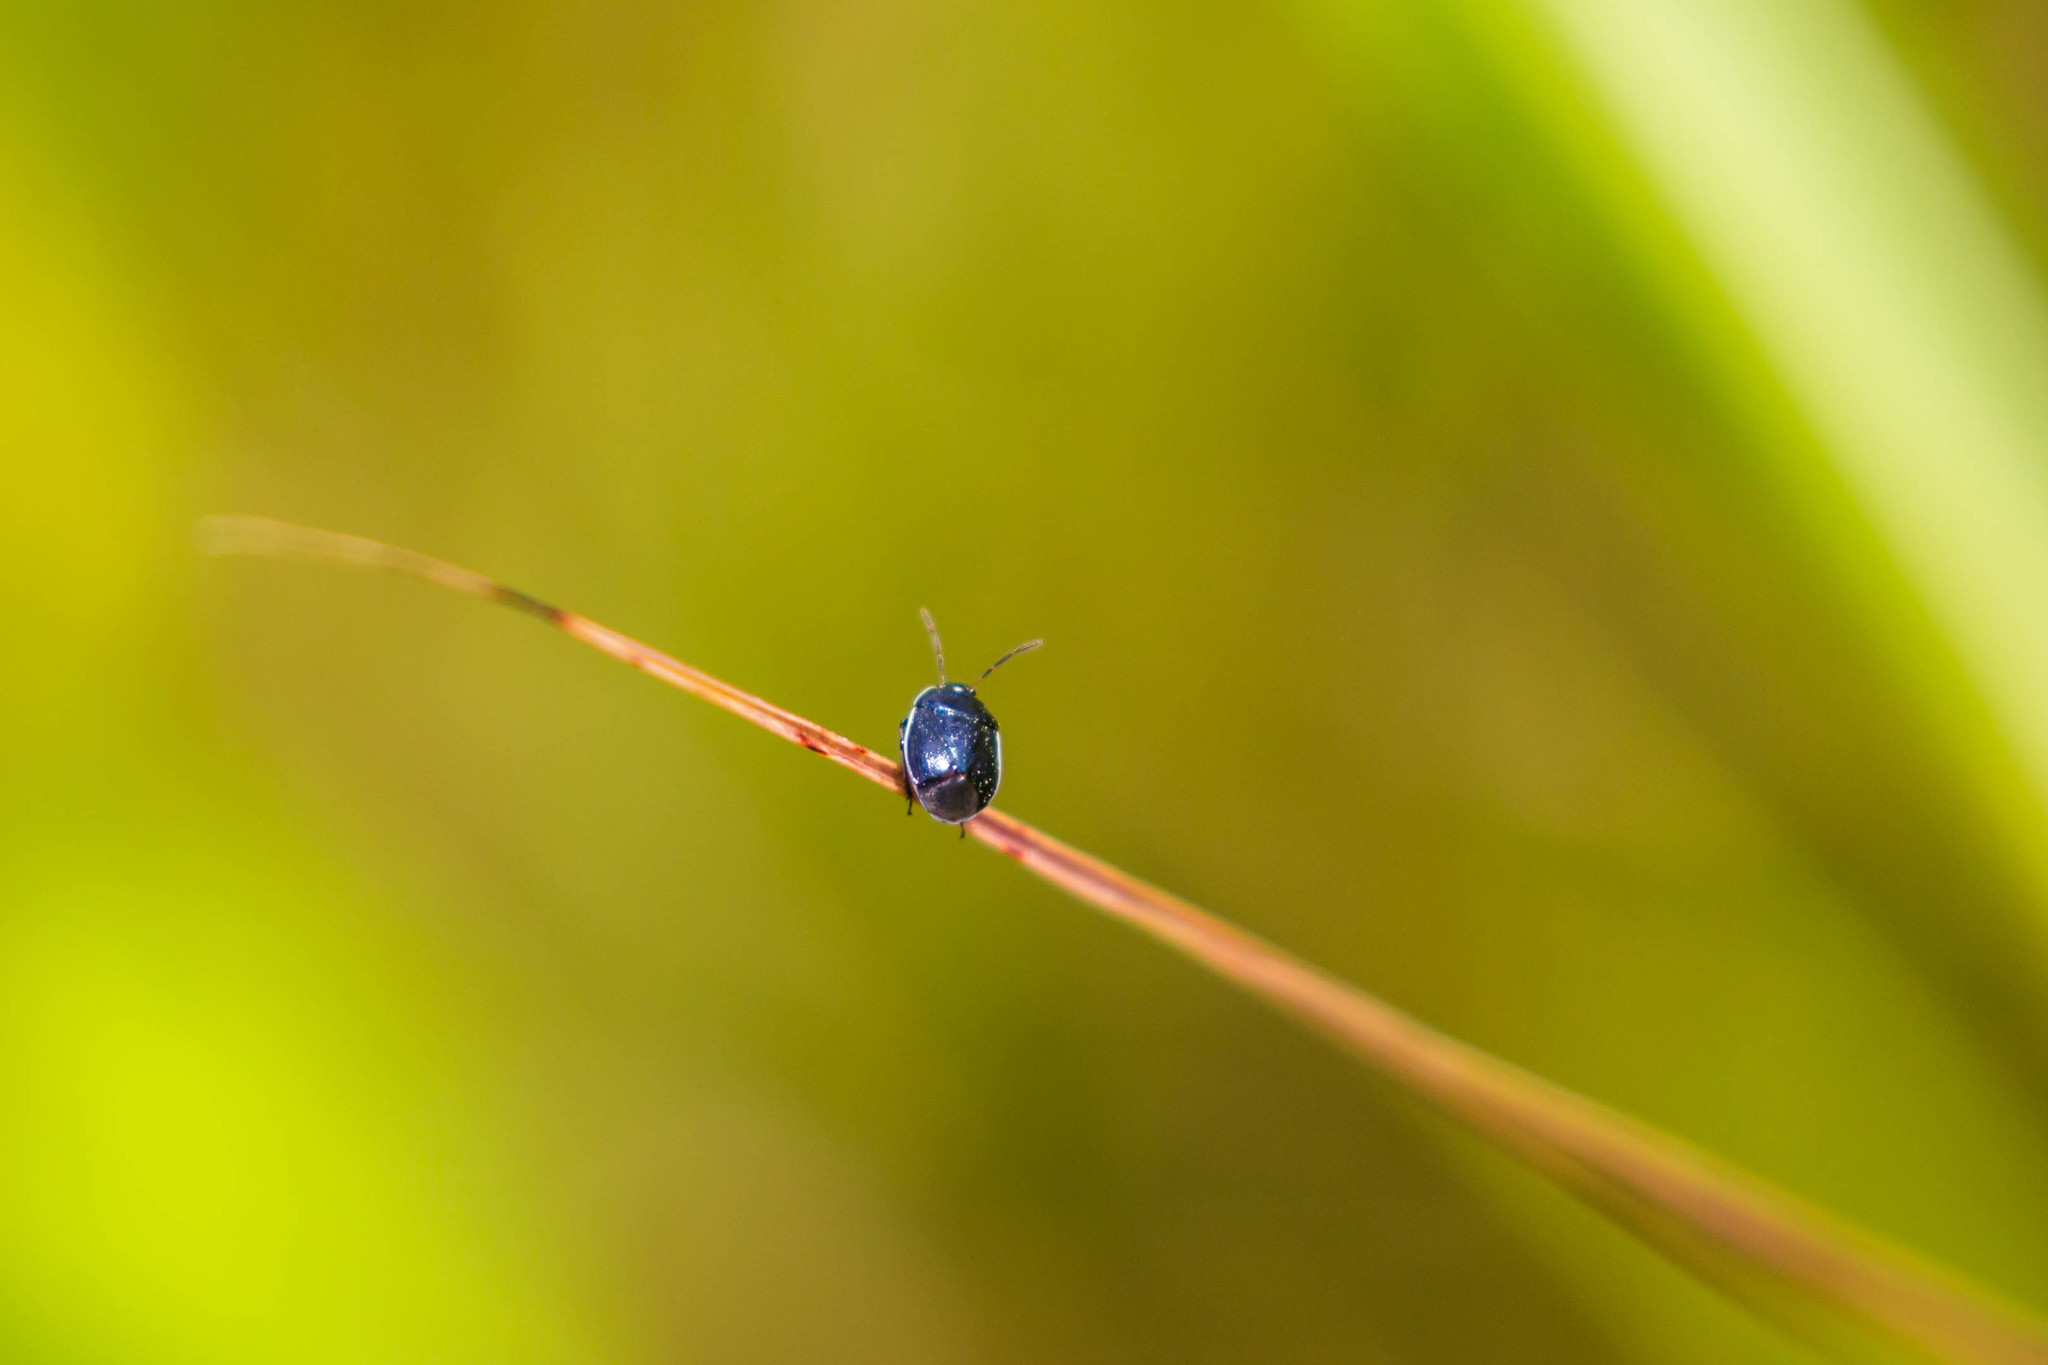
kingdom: Animalia
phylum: Arthropoda
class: Insecta
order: Hemiptera
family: Cydnidae
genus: Sehirus
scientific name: Sehirus cinctus
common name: White-margined burrower bug
